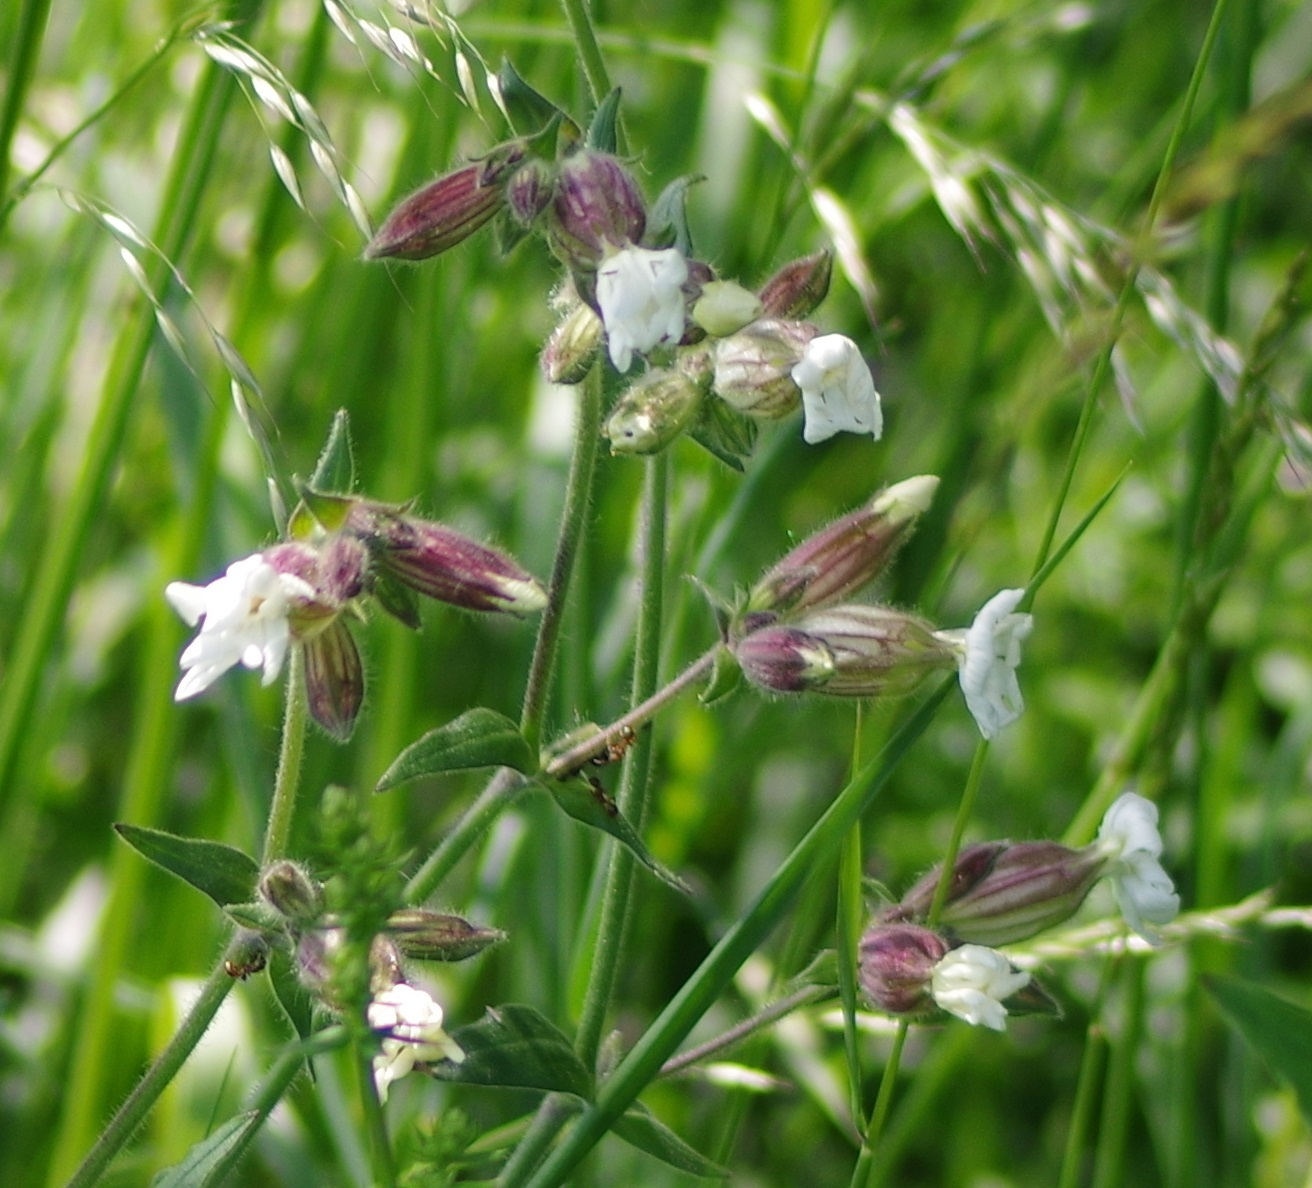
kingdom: Plantae
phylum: Tracheophyta
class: Magnoliopsida
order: Caryophyllales
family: Caryophyllaceae
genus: Silene
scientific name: Silene latifolia
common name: White campion
